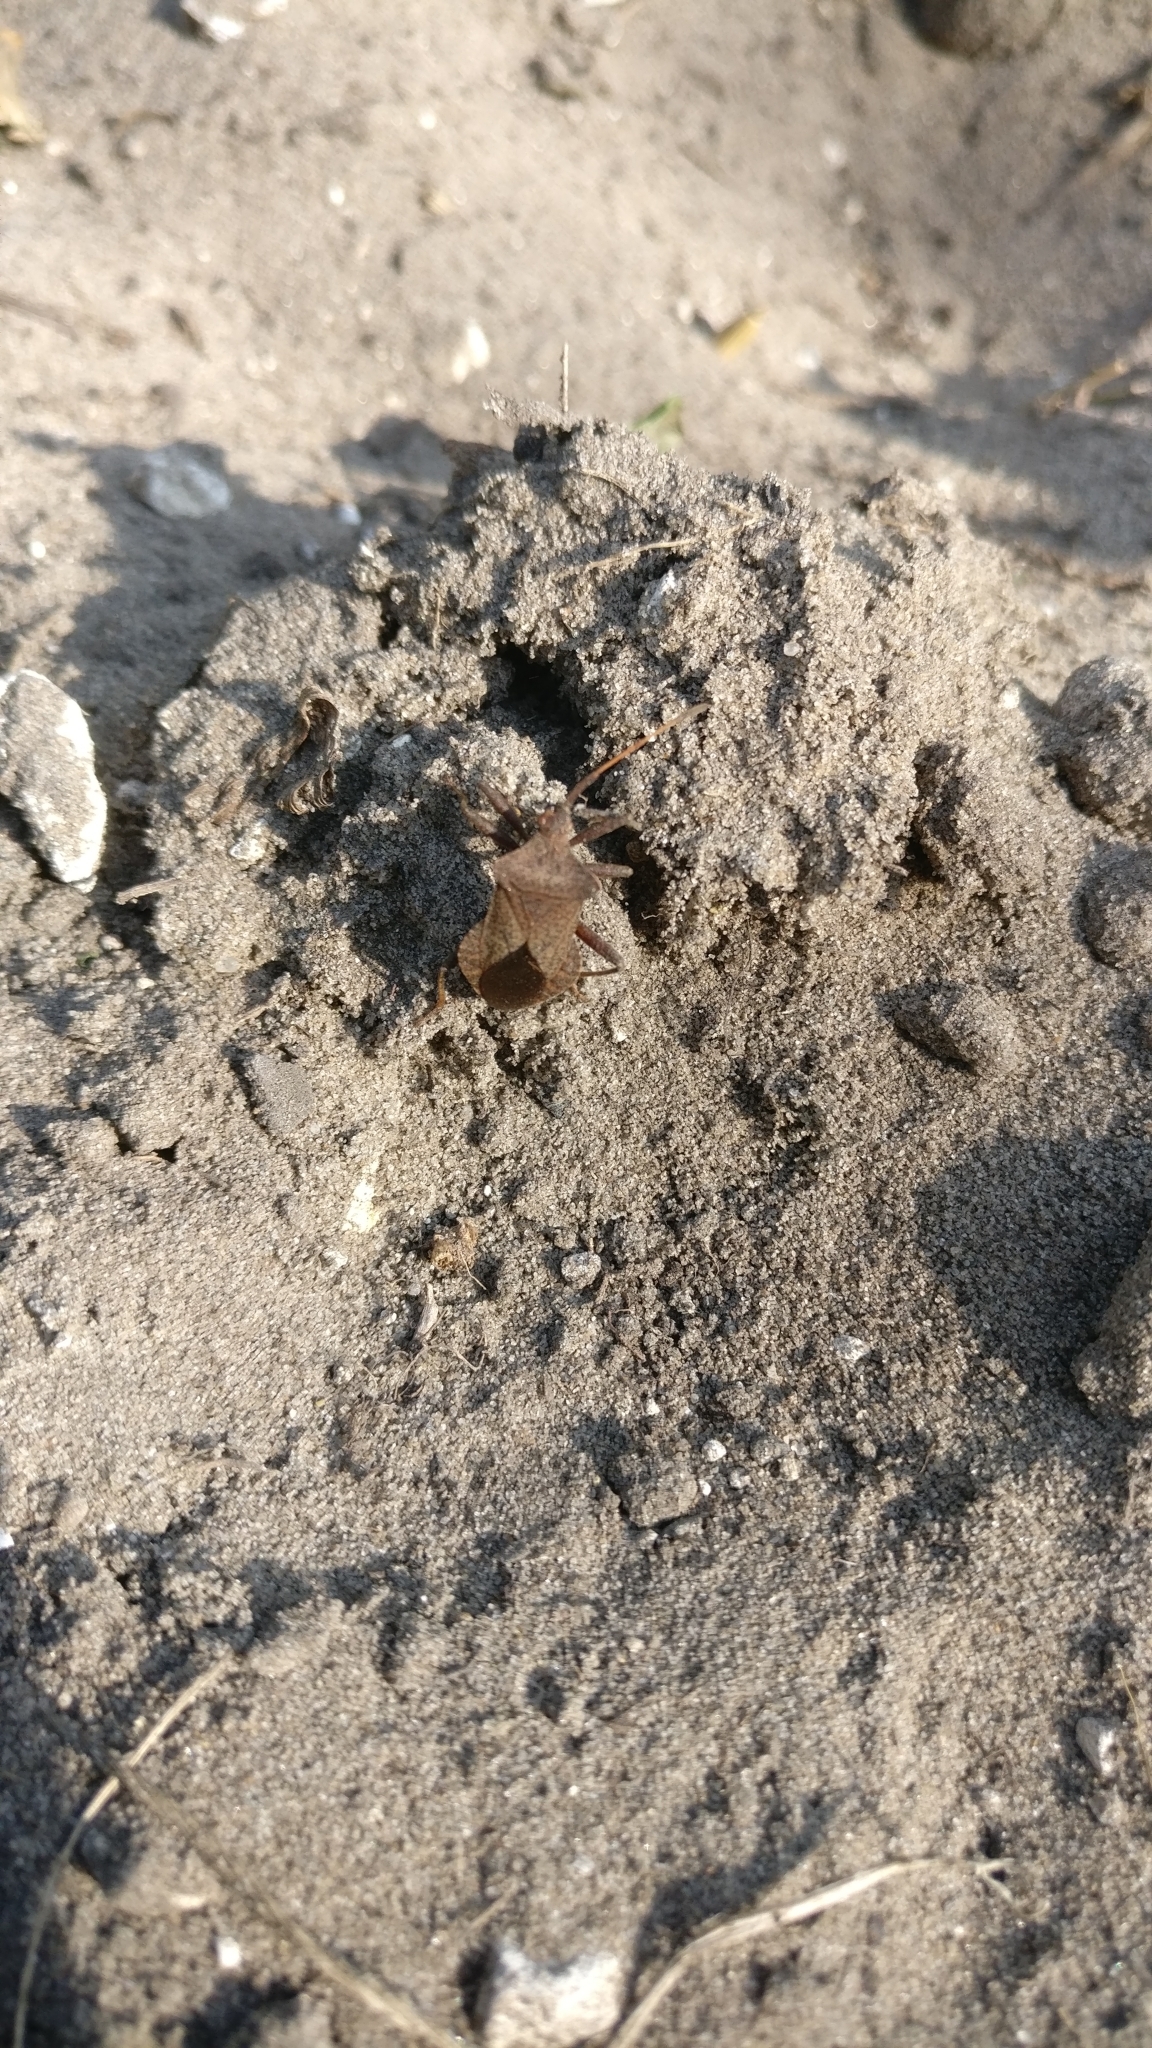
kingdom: Animalia
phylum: Arthropoda
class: Insecta
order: Hemiptera
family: Coreidae
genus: Coreus
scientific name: Coreus marginatus
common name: Dock bug
